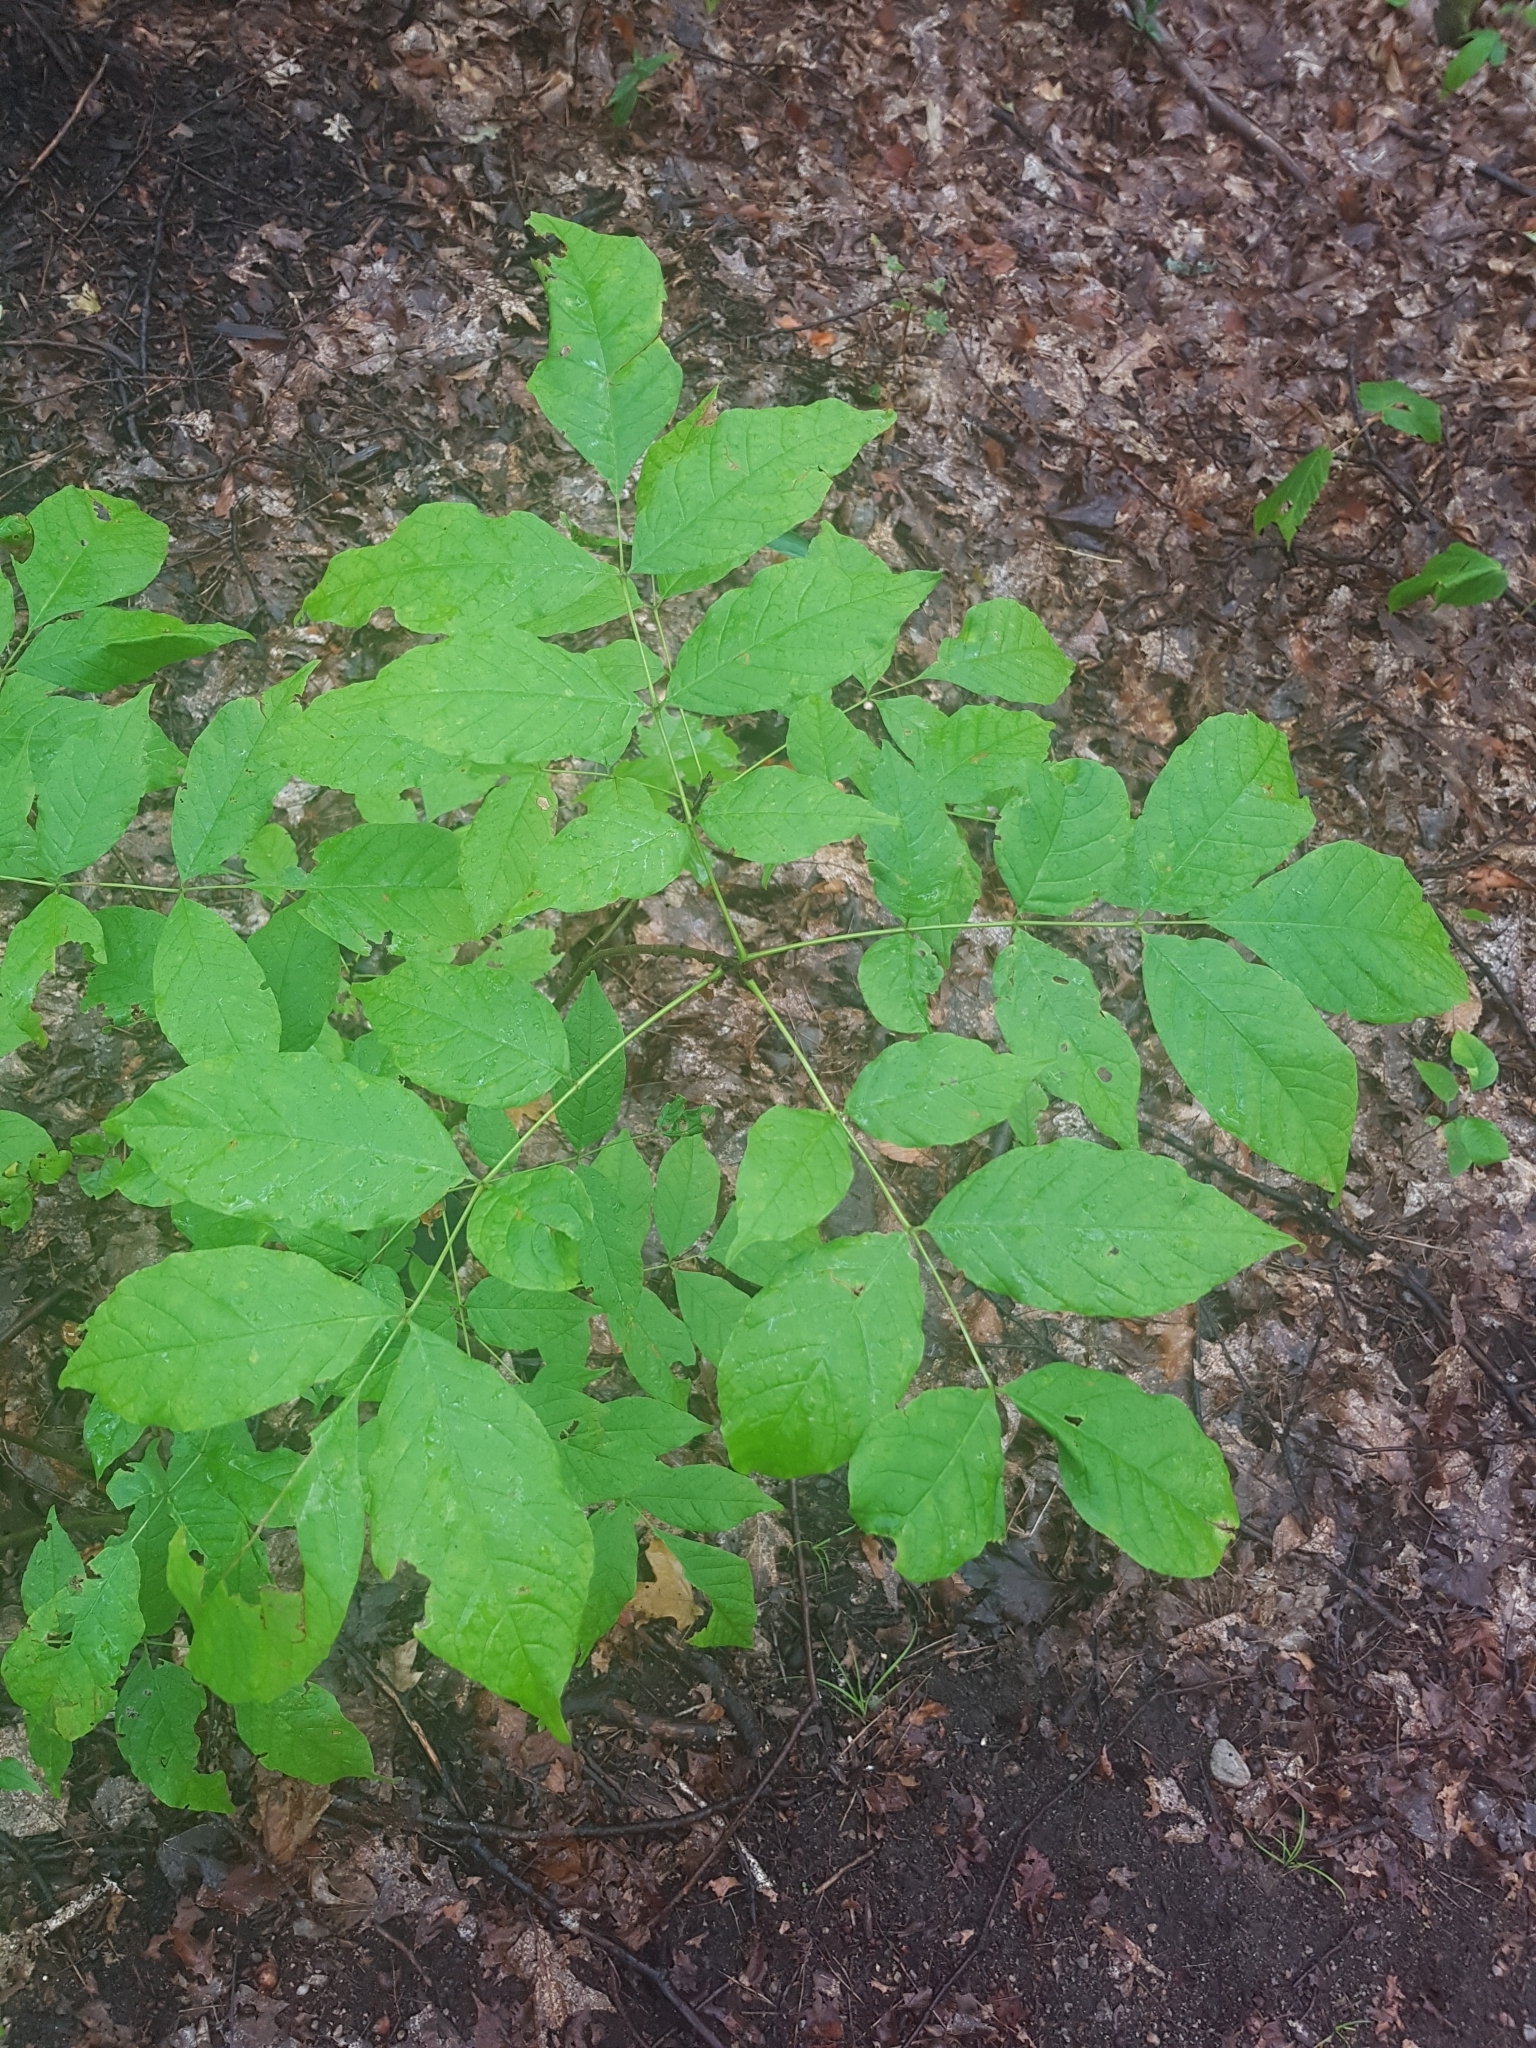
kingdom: Plantae
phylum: Tracheophyta
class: Magnoliopsida
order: Lamiales
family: Oleaceae
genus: Fraxinus
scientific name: Fraxinus americana
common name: White ash
